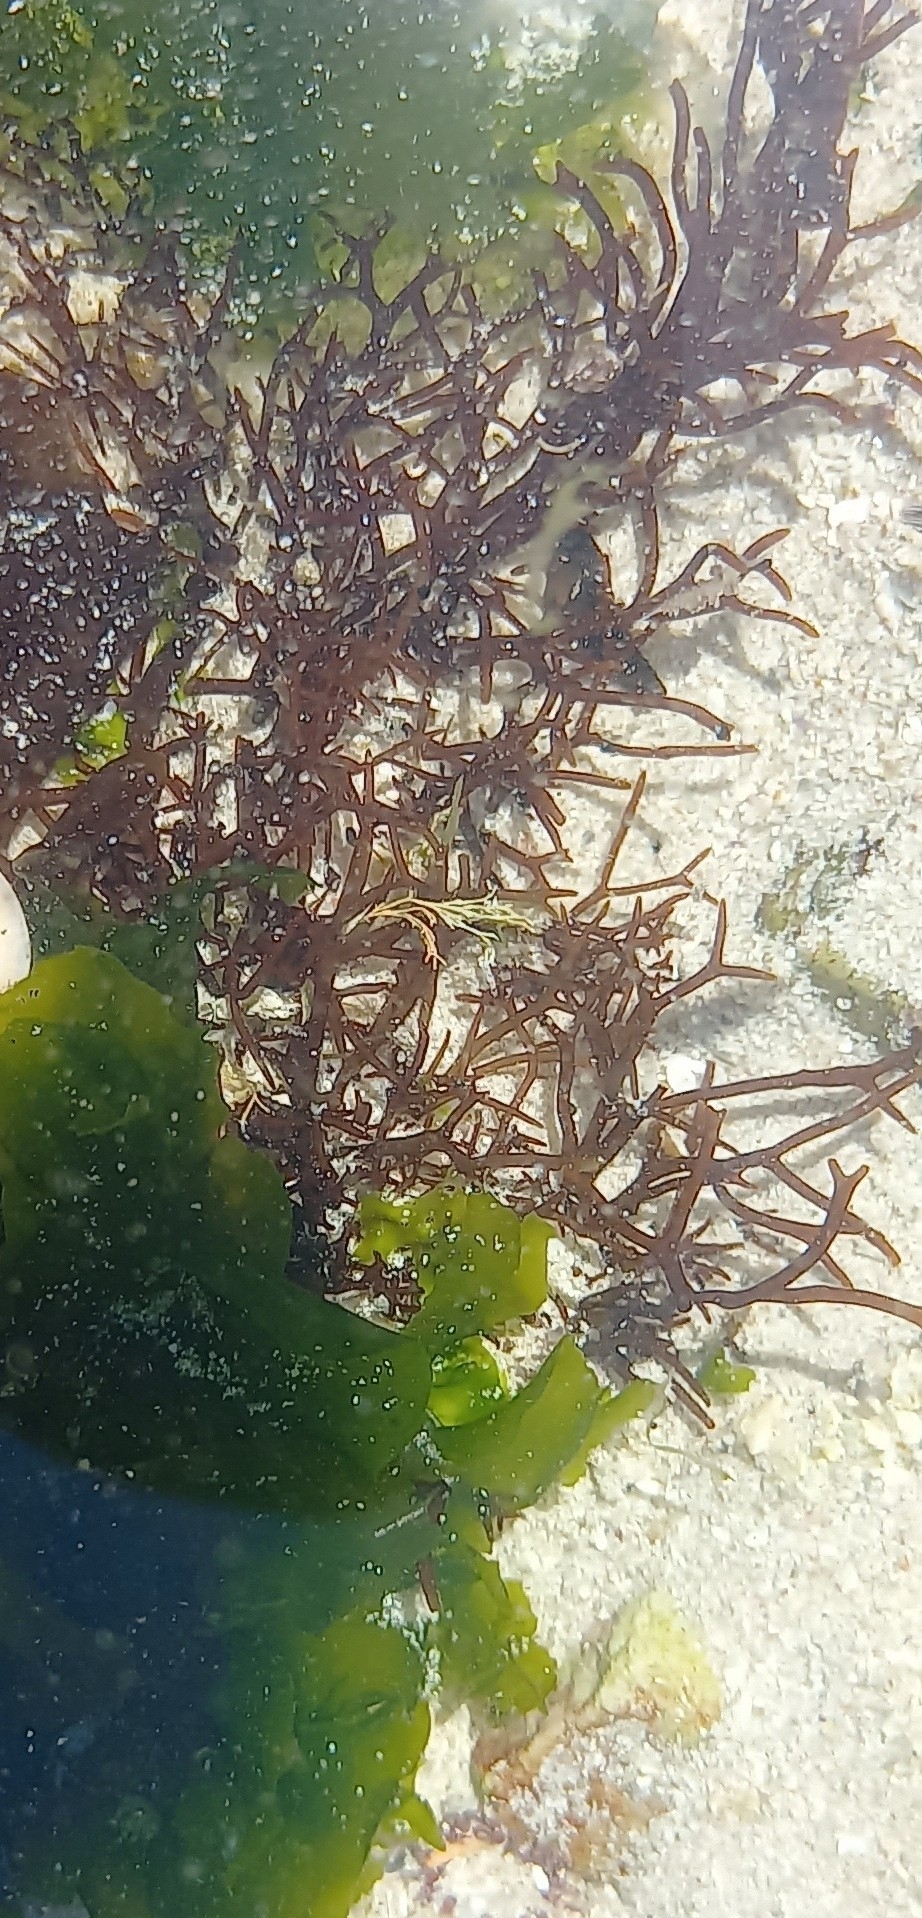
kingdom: Plantae
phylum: Rhodophyta
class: Florideophyceae
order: Gigartinales
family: Sarcodiaceae
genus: Trematocarpus
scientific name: Trematocarpus flabellatus
